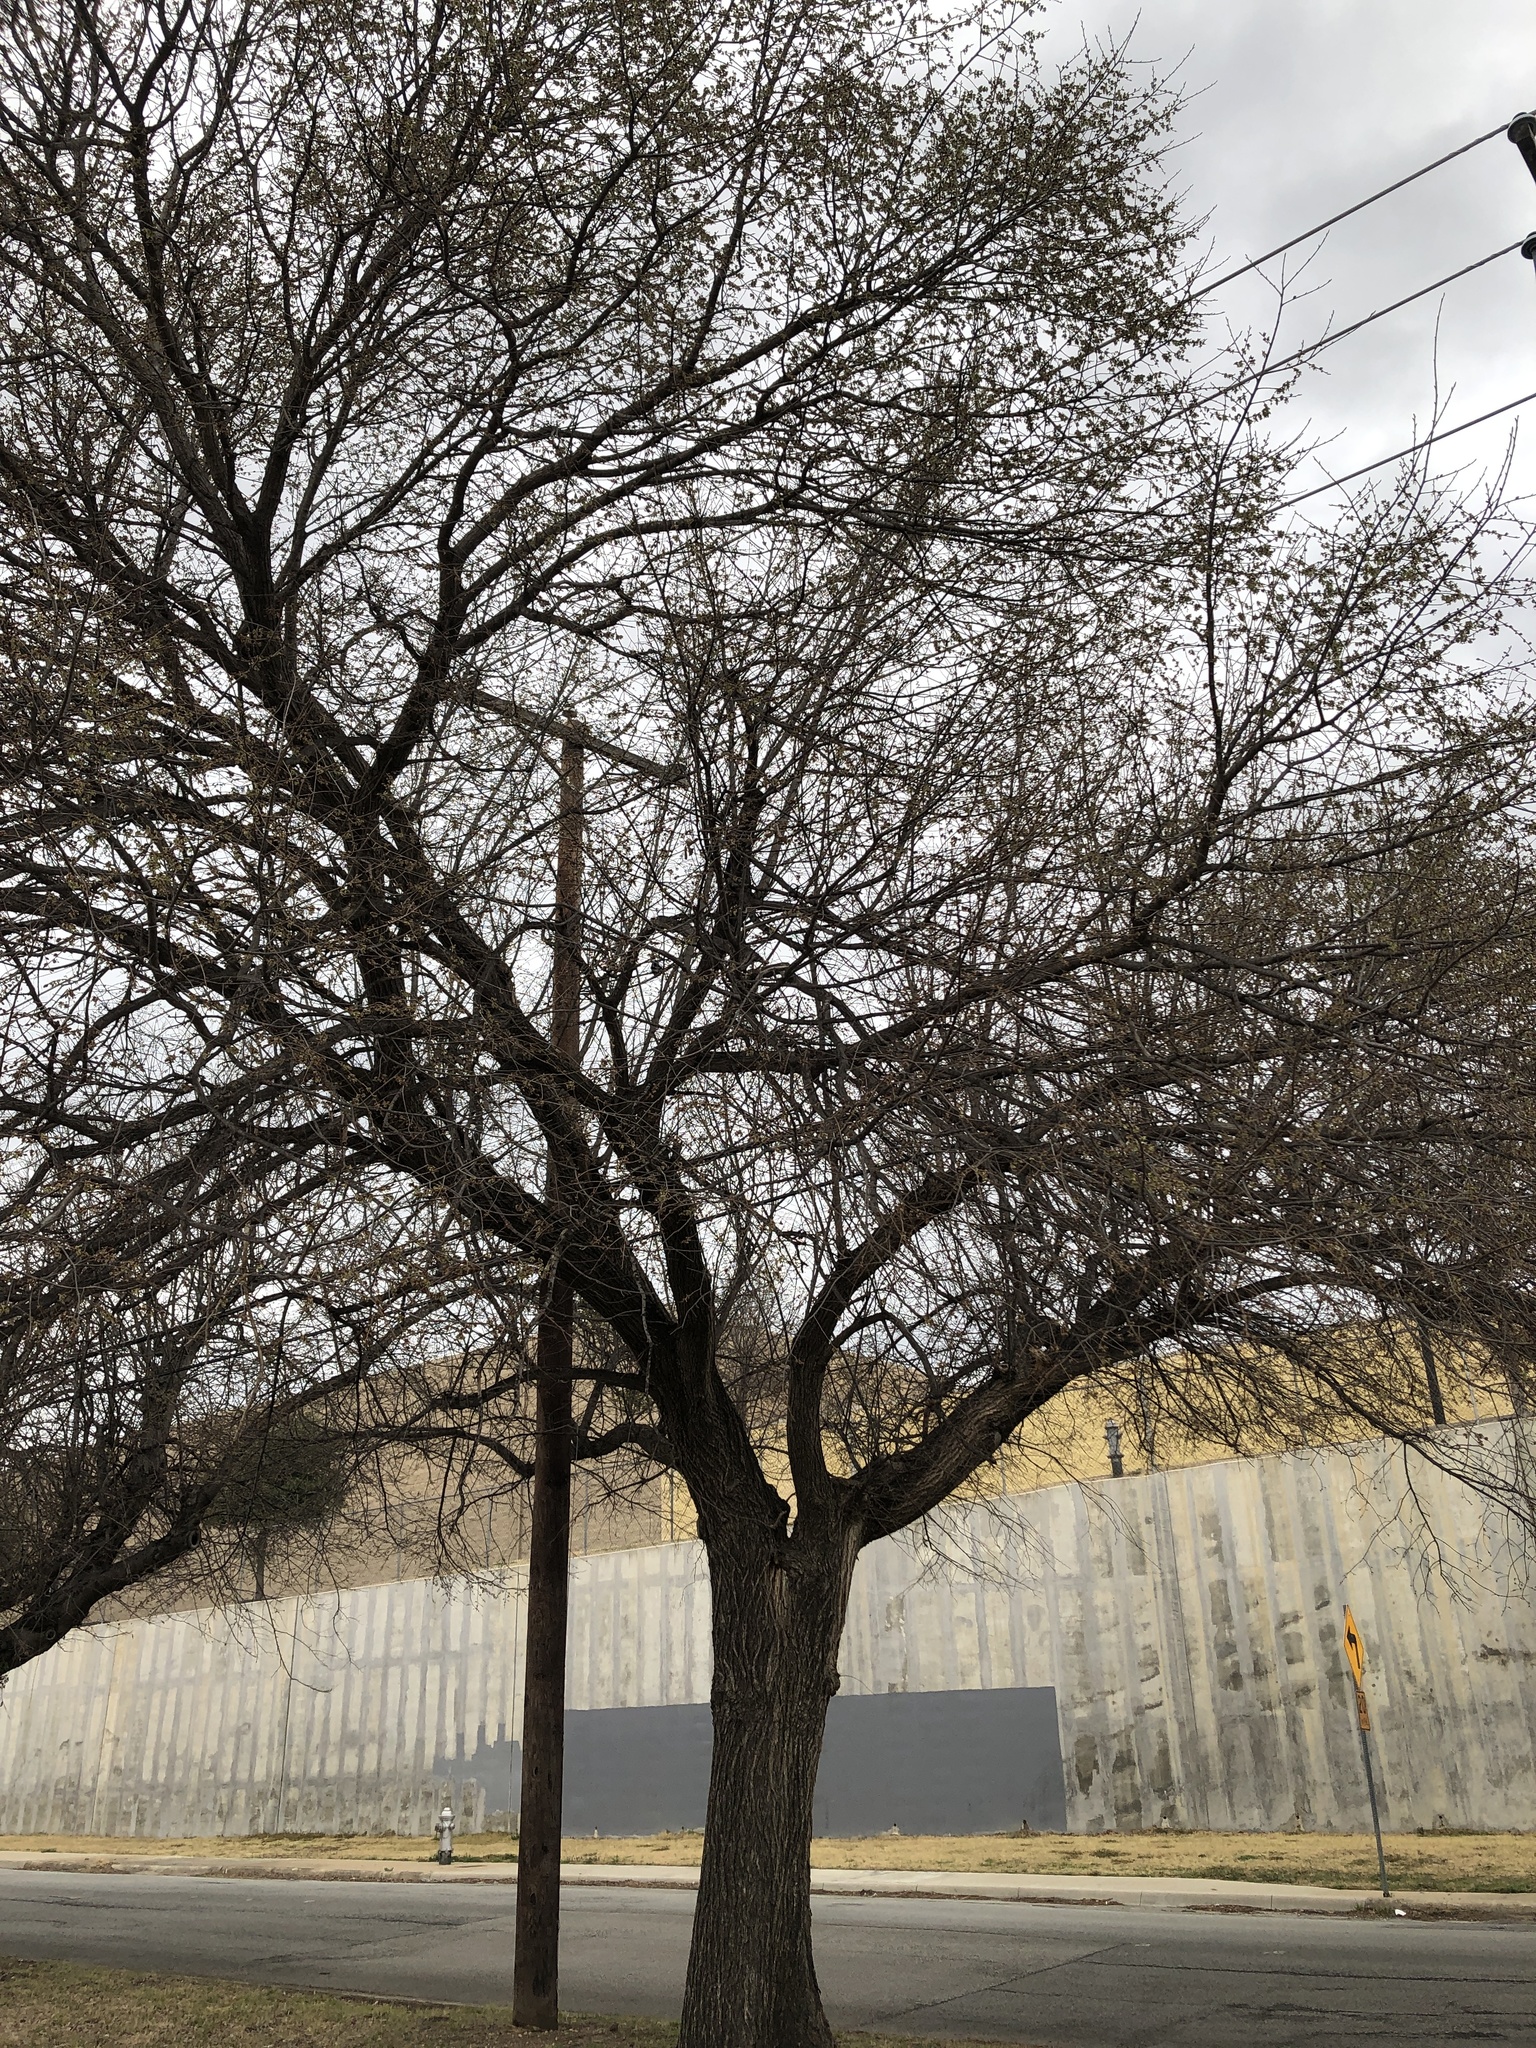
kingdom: Plantae
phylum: Tracheophyta
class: Magnoliopsida
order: Rosales
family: Ulmaceae
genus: Ulmus
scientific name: Ulmus americana
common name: American elm
